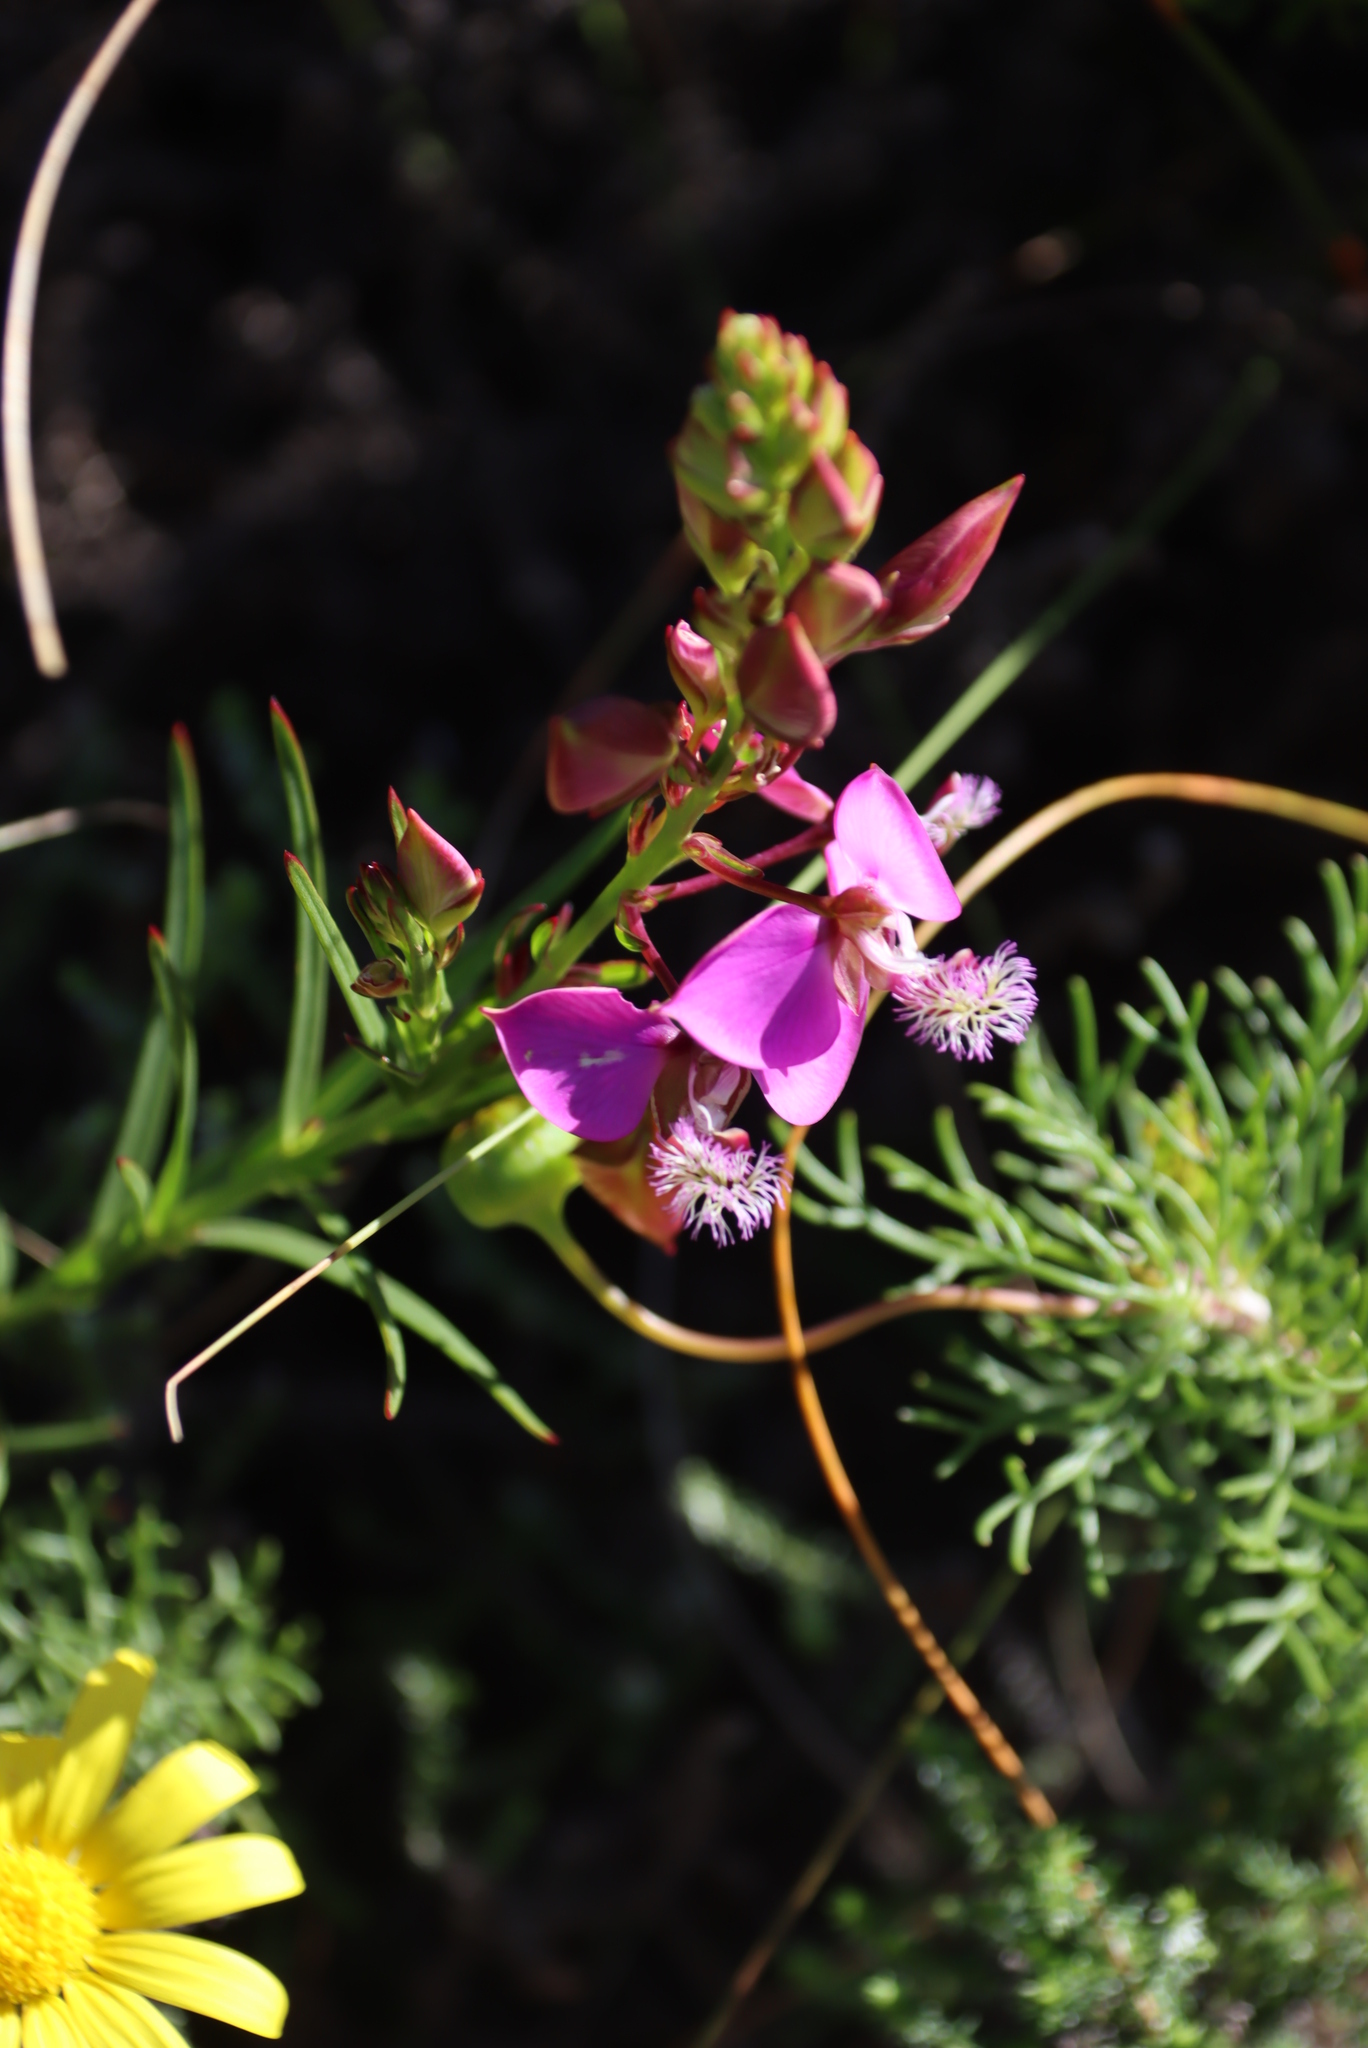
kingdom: Plantae
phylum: Tracheophyta
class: Magnoliopsida
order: Fabales
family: Polygalaceae
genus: Polygala
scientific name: Polygala bracteolata
